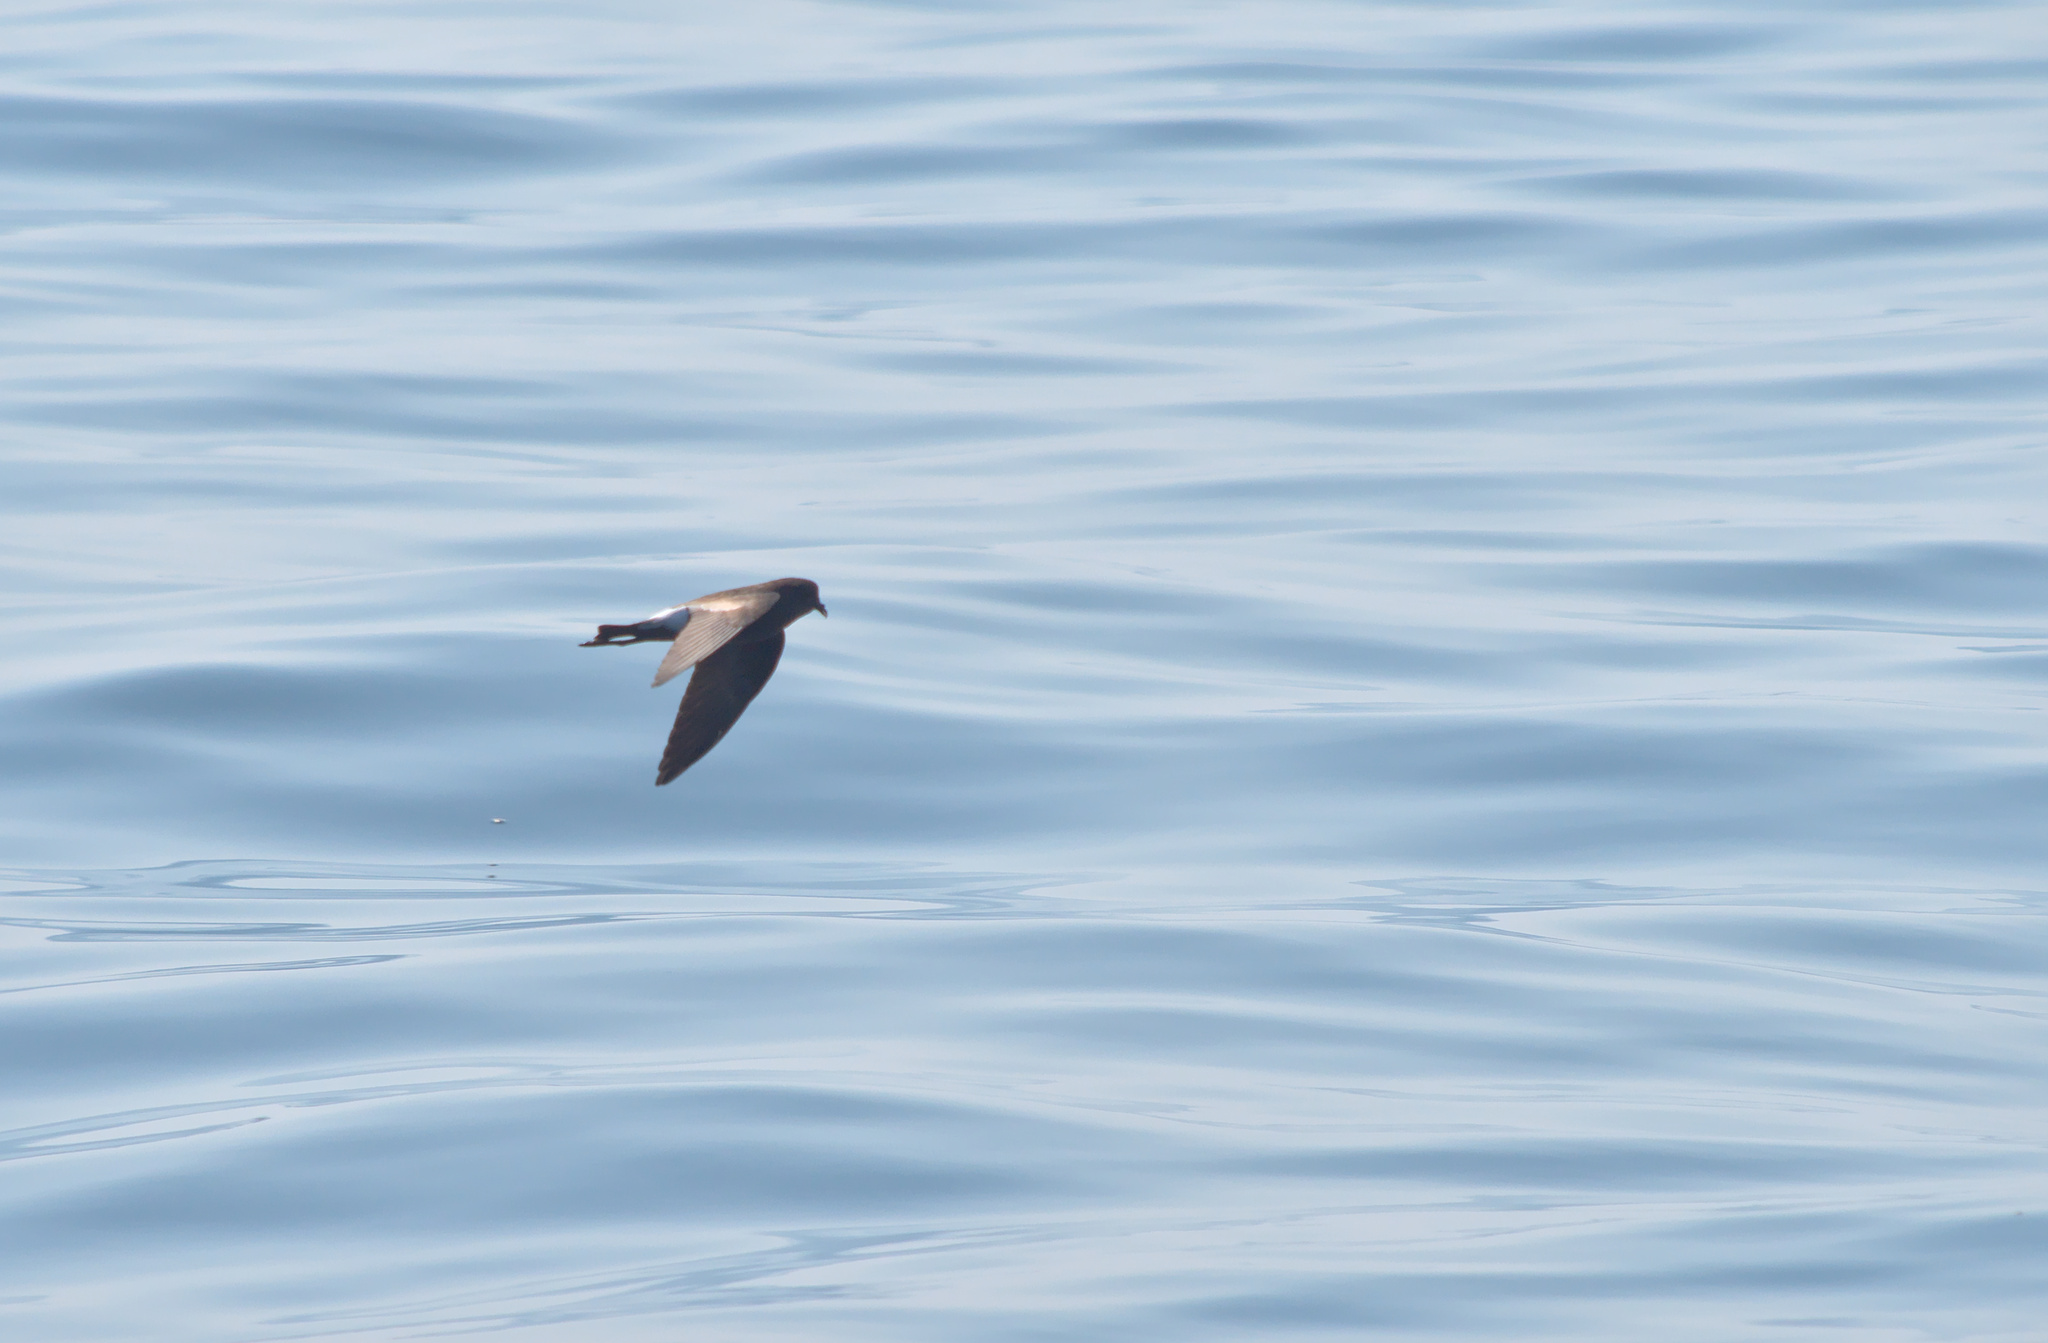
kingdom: Animalia
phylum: Chordata
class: Aves
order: Procellariiformes
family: Hydrobatidae
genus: Oceanites
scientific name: Oceanites oceanicus
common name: Wilson's storm petrel
